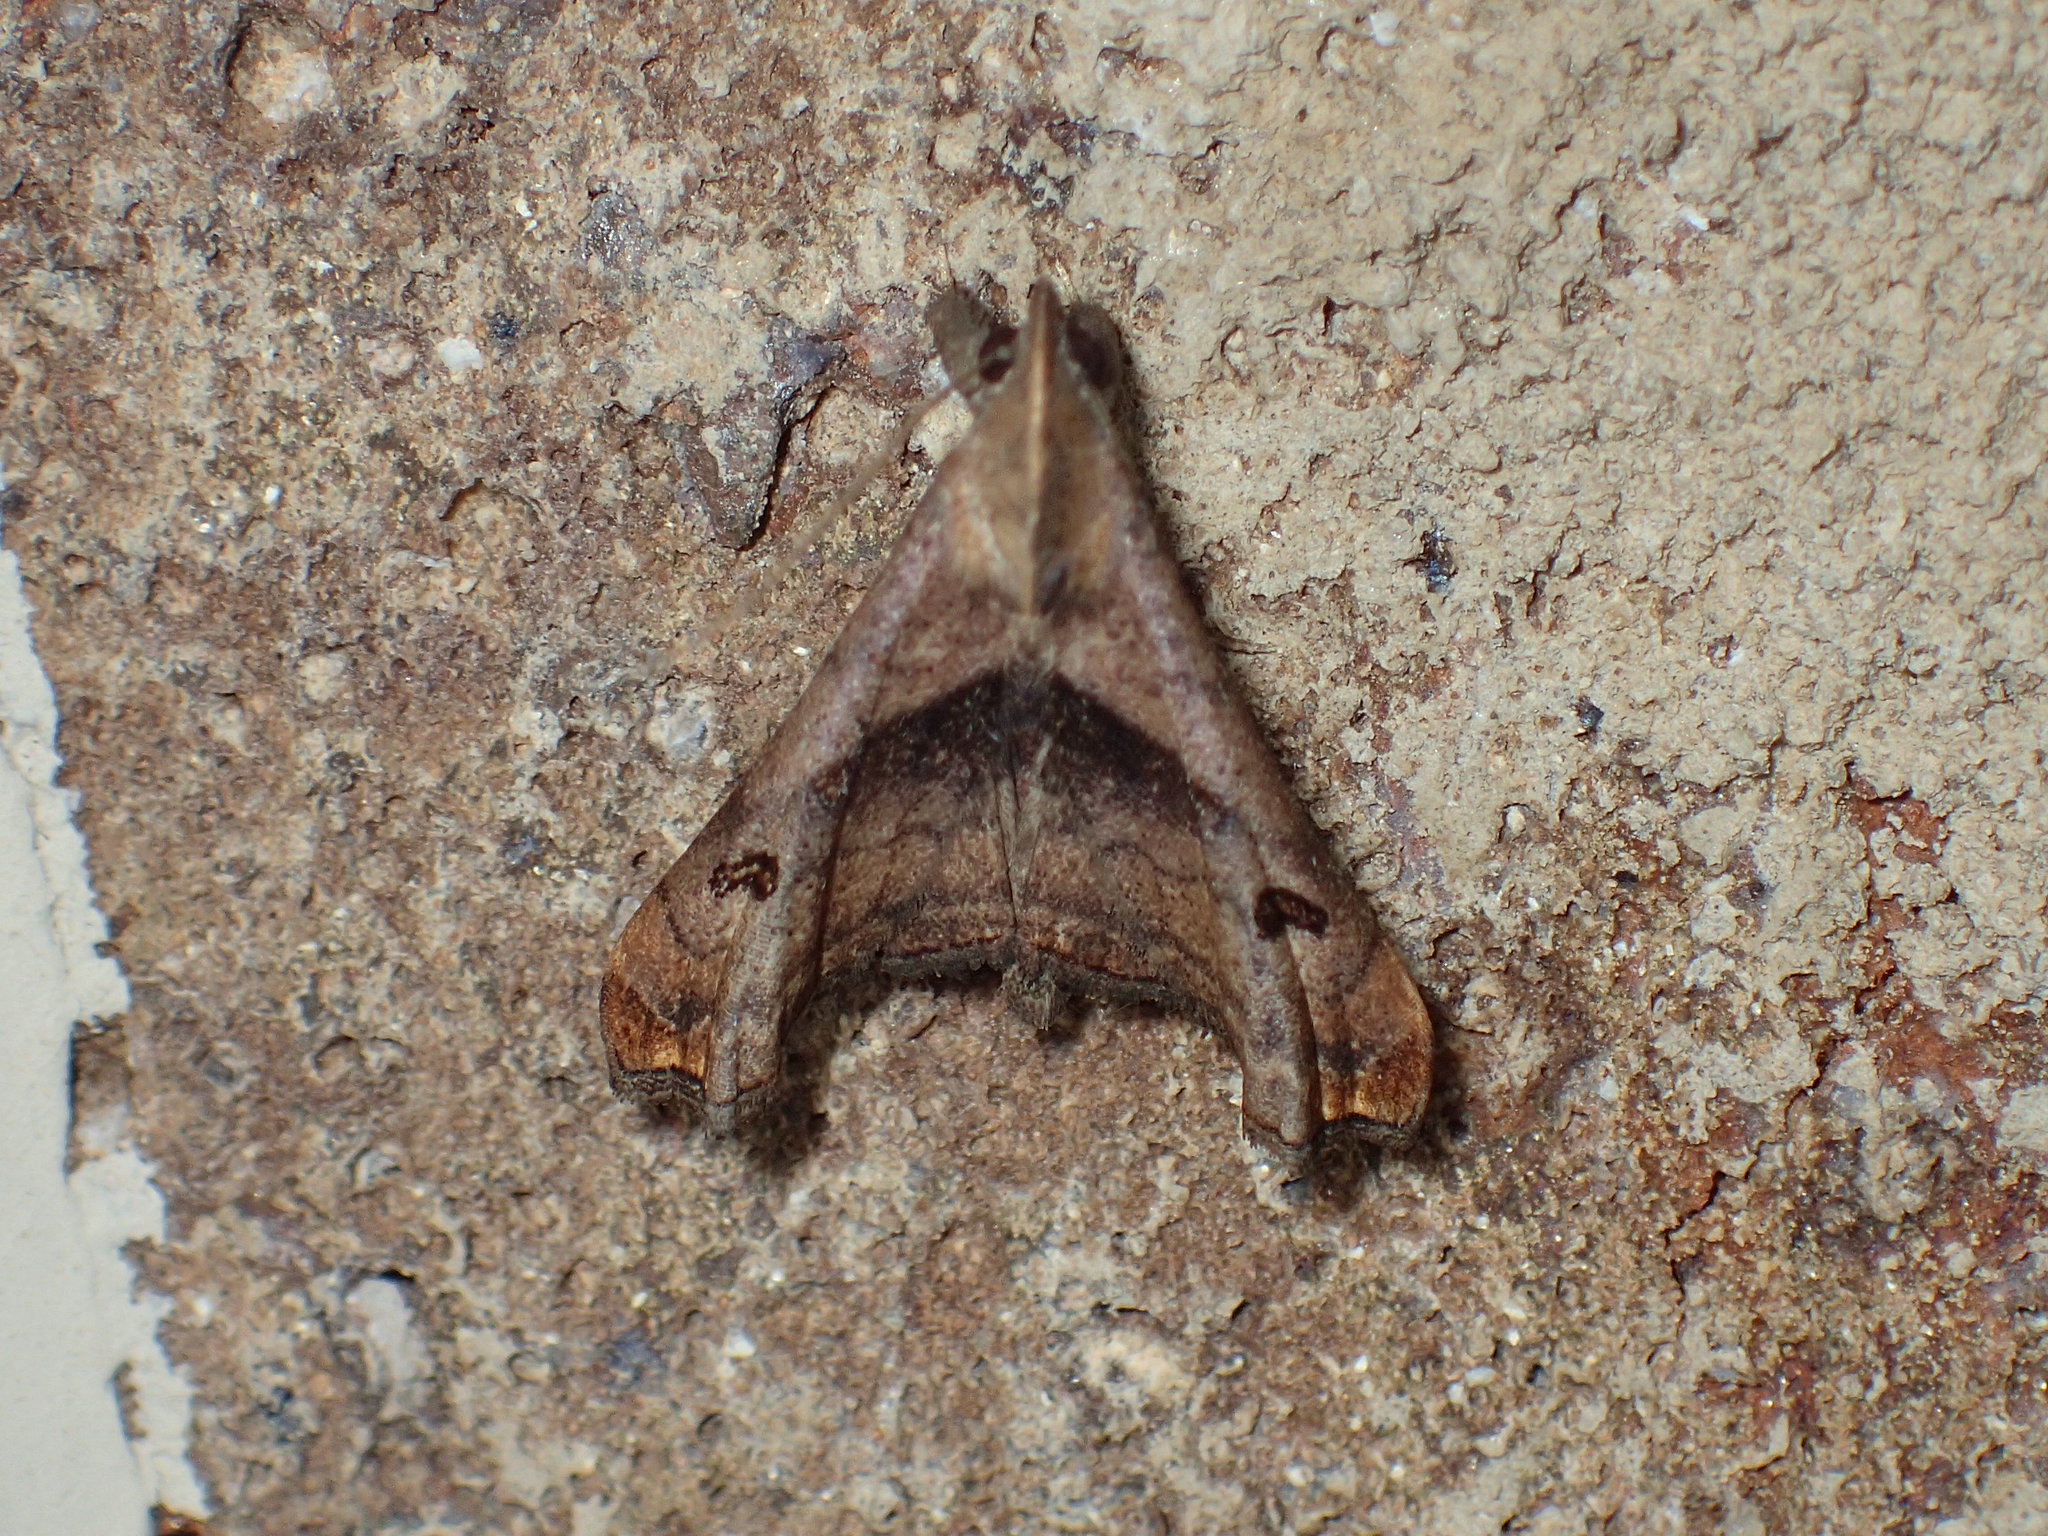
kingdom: Animalia
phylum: Arthropoda
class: Insecta
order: Lepidoptera
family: Erebidae
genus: Palthis
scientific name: Palthis angulalis
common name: Dark-spotted palthis moth
